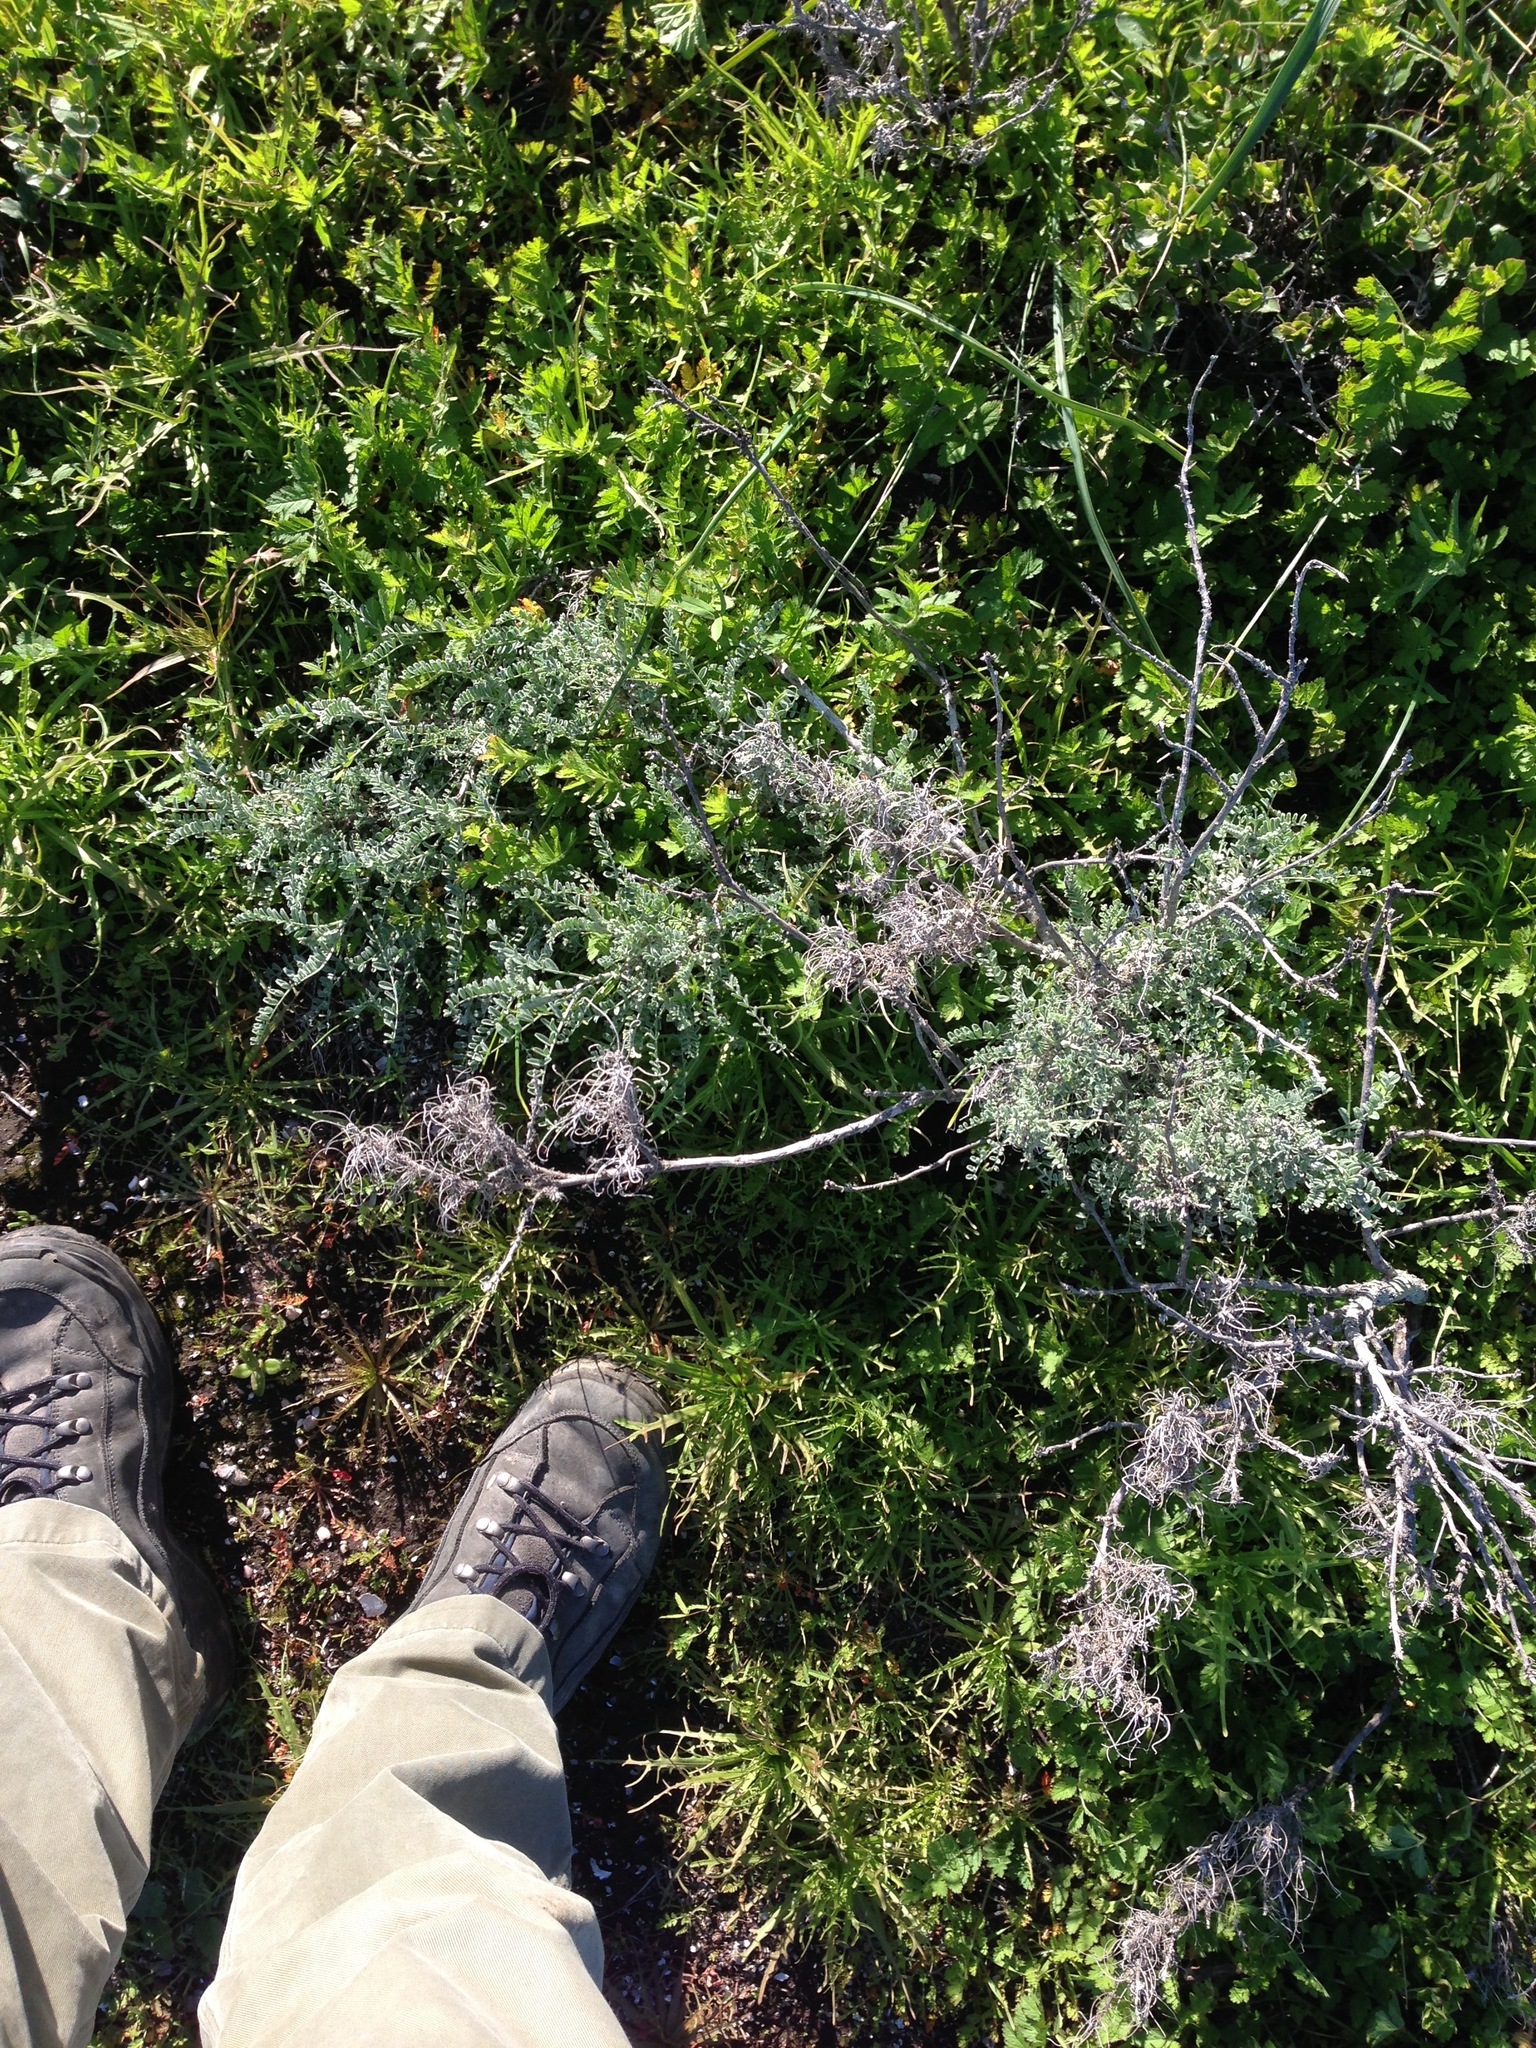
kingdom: Plantae
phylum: Tracheophyta
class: Magnoliopsida
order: Fabales
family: Fabaceae
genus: Astragalus
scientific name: Astragalus miguelensis
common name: San miguel milk-vetch
